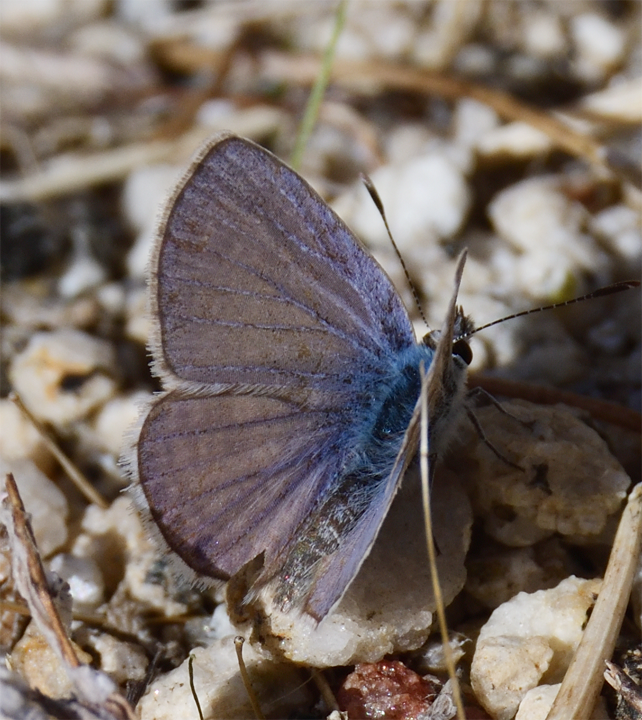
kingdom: Animalia
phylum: Arthropoda
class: Insecta
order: Lepidoptera
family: Lycaenidae
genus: Hemiargus
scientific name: Hemiargus ceraunus
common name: Ceraunus blue
